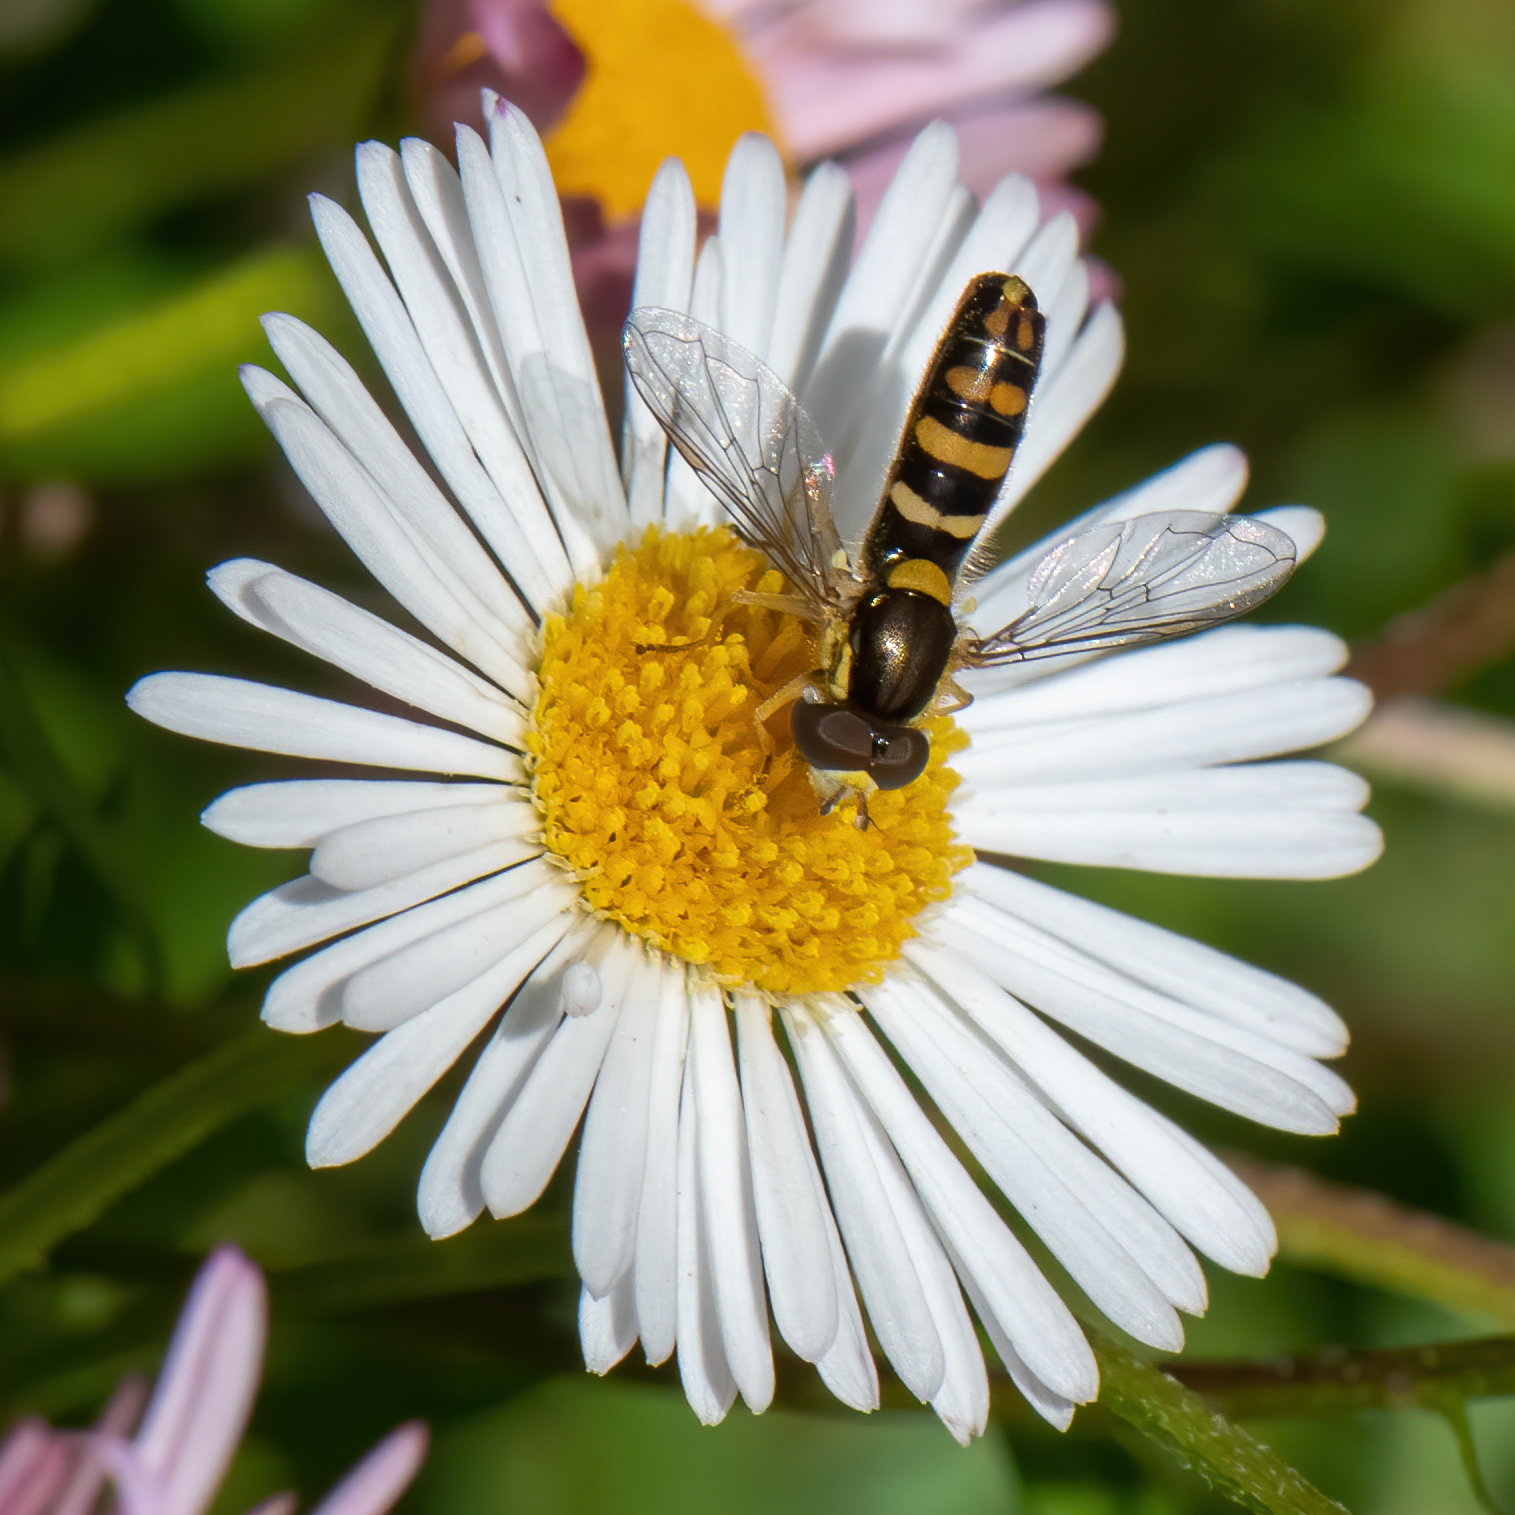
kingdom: Animalia
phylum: Arthropoda
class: Insecta
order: Diptera
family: Syrphidae
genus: Sphaerophoria
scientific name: Sphaerophoria sulphuripes
